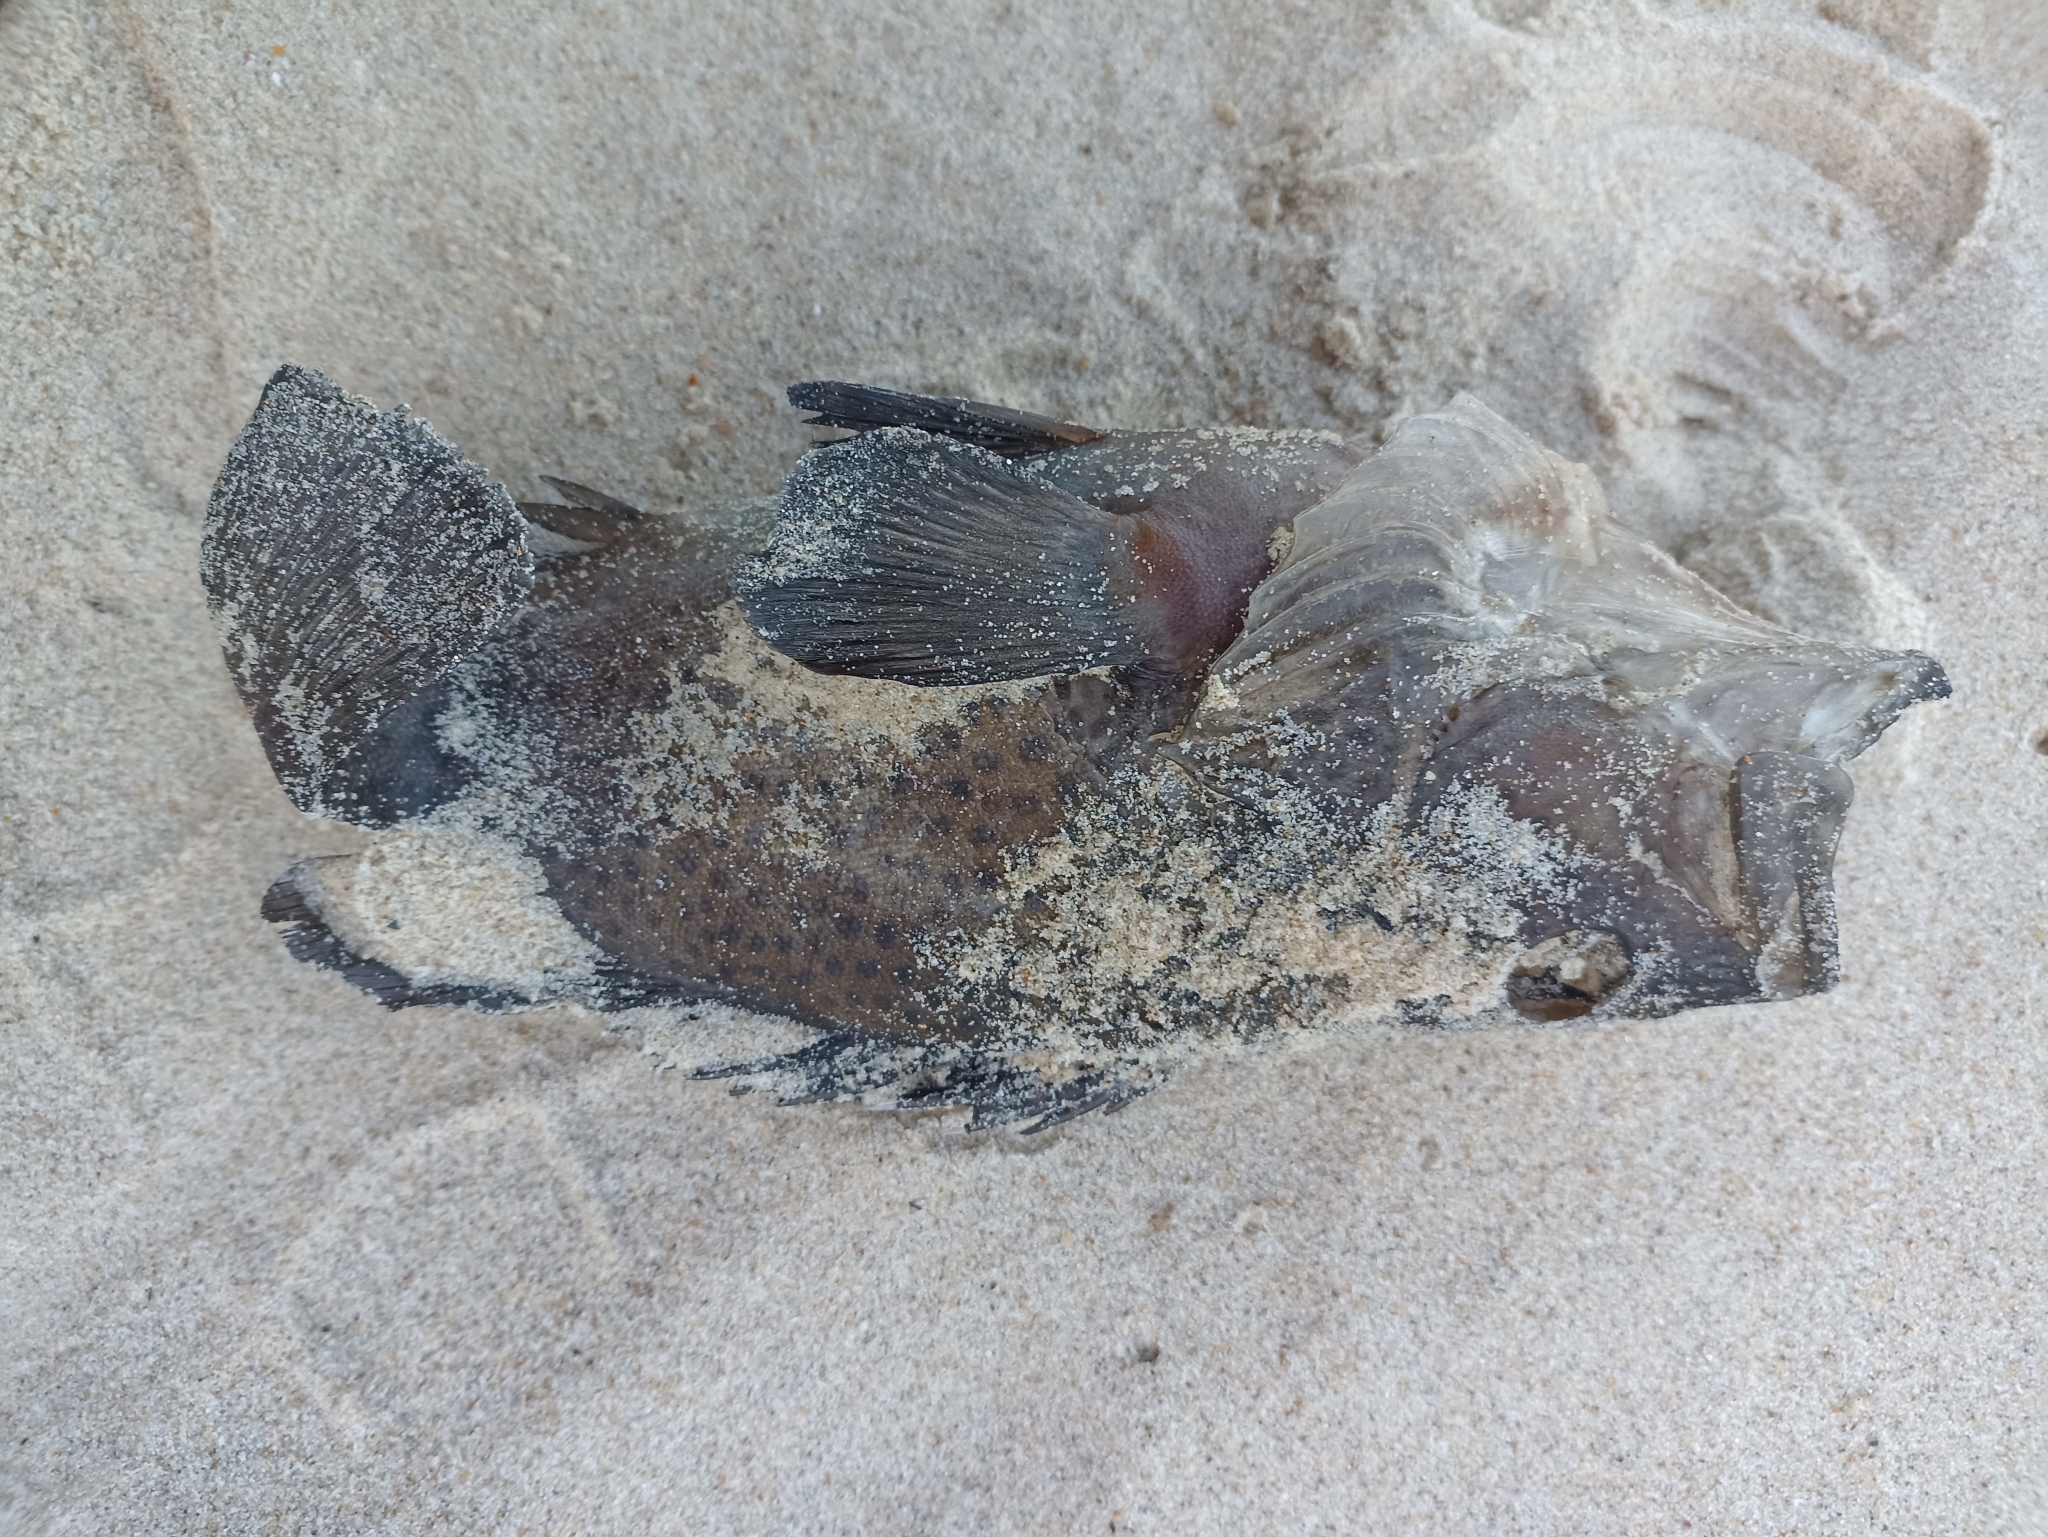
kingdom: Animalia
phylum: Chordata
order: Perciformes
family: Serranidae
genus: Acanthistius
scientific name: Acanthistius ocellatus
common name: Eastern wirrah
